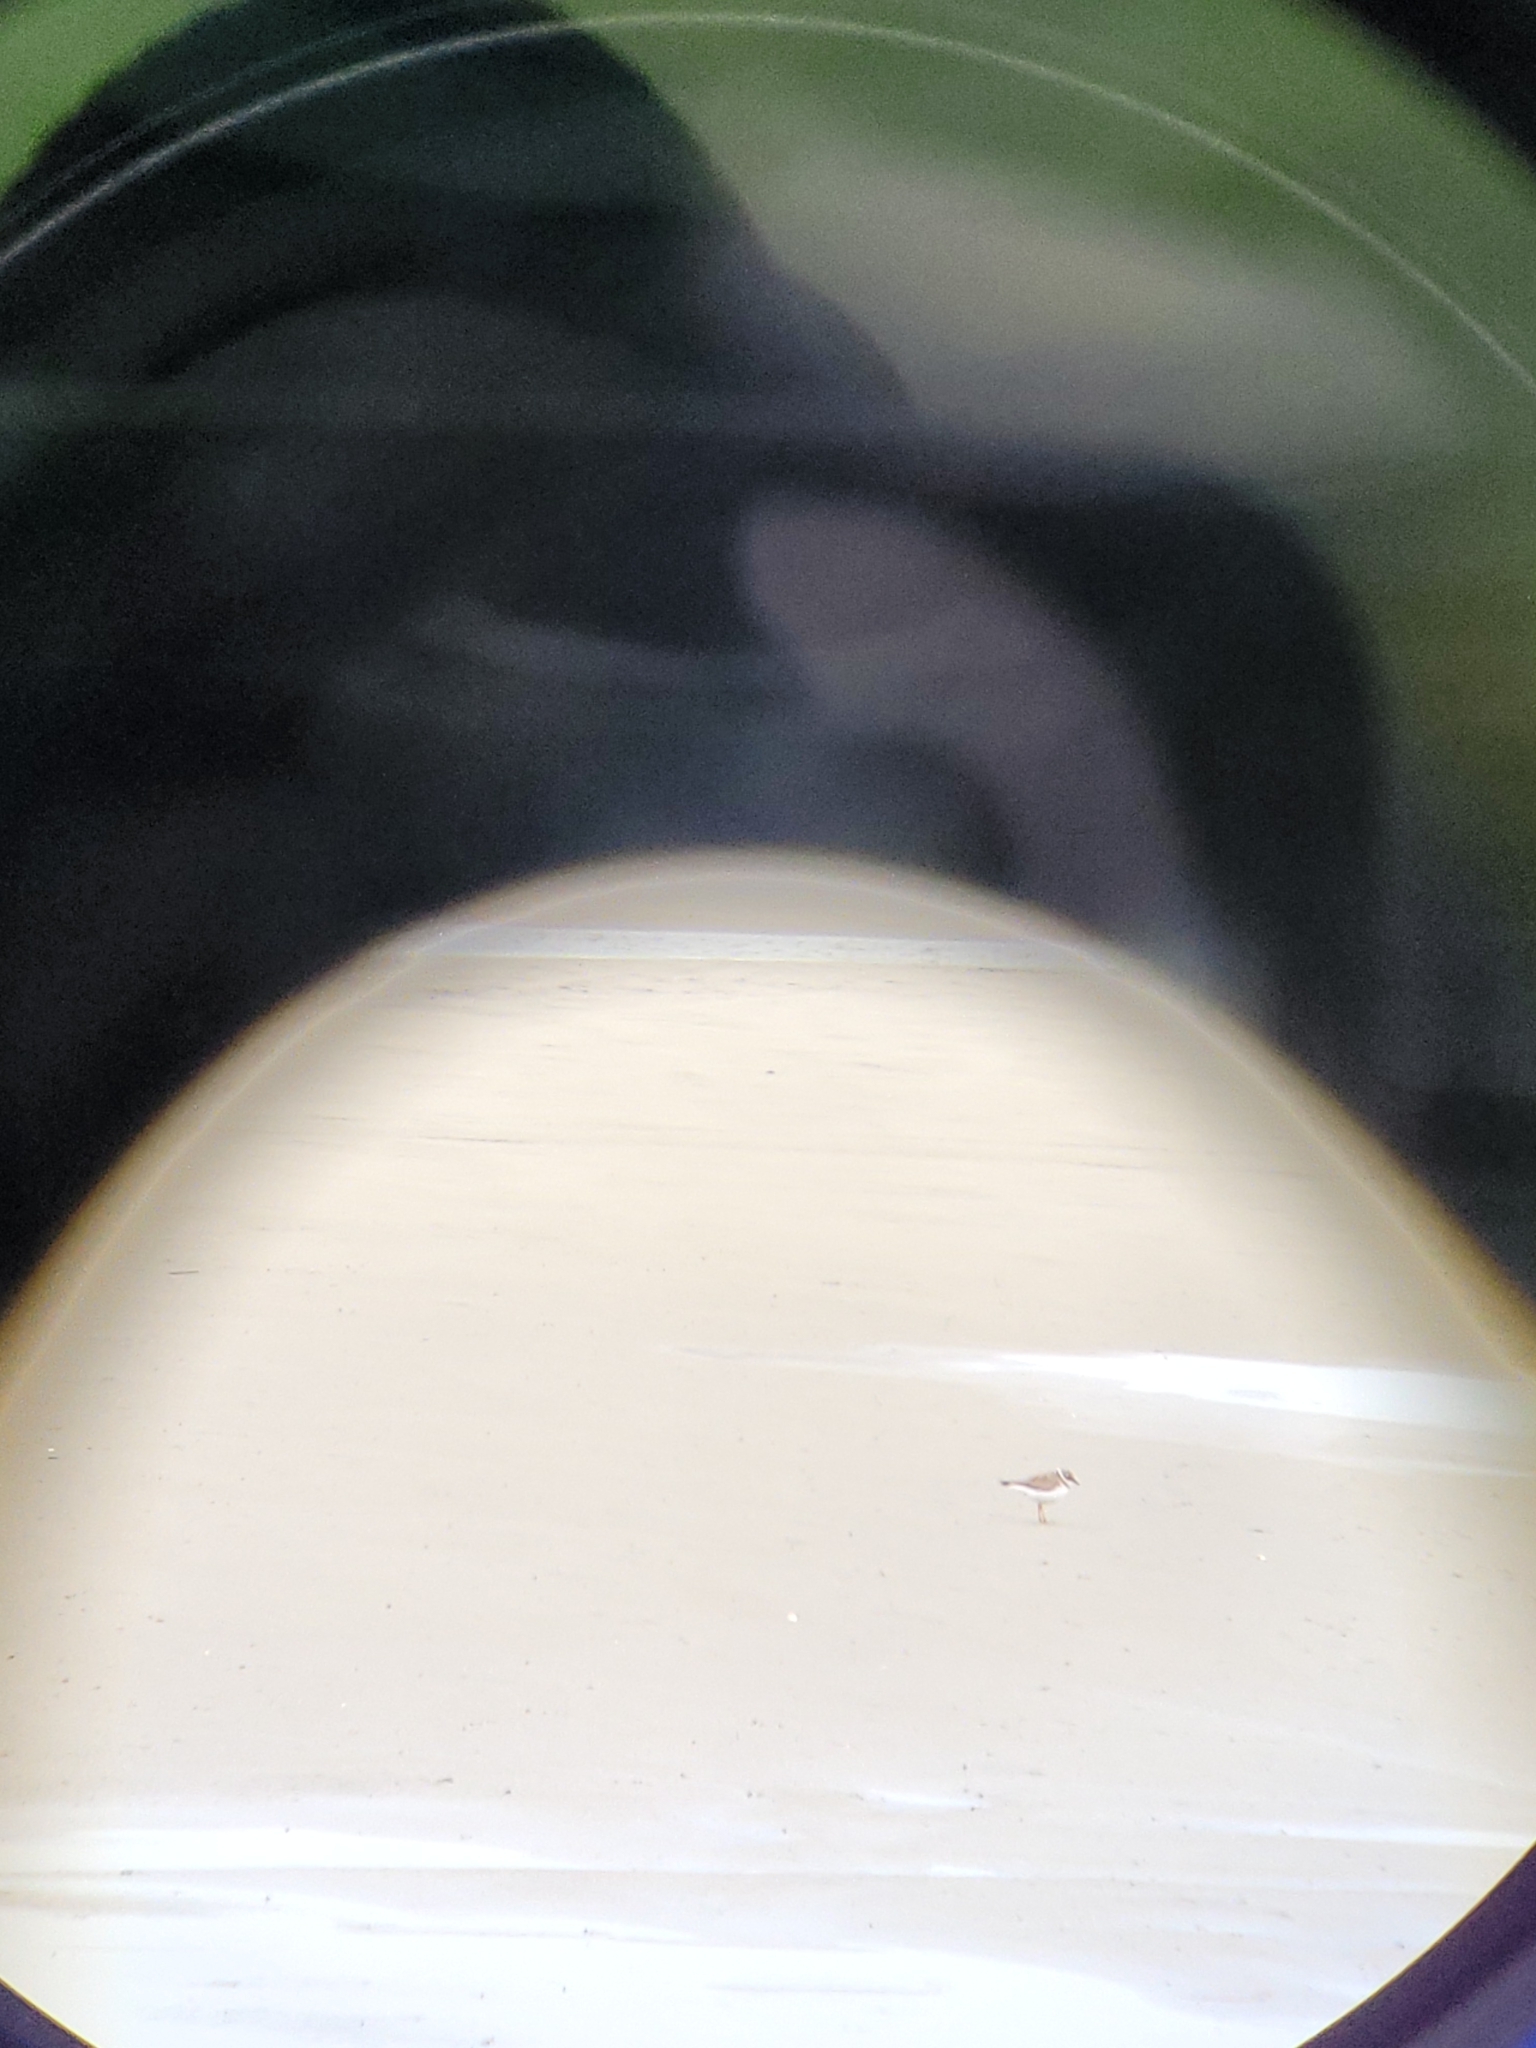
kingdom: Animalia
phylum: Chordata
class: Aves
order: Charadriiformes
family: Charadriidae
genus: Charadrius
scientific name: Charadrius semipalmatus
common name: Semipalmated plover
